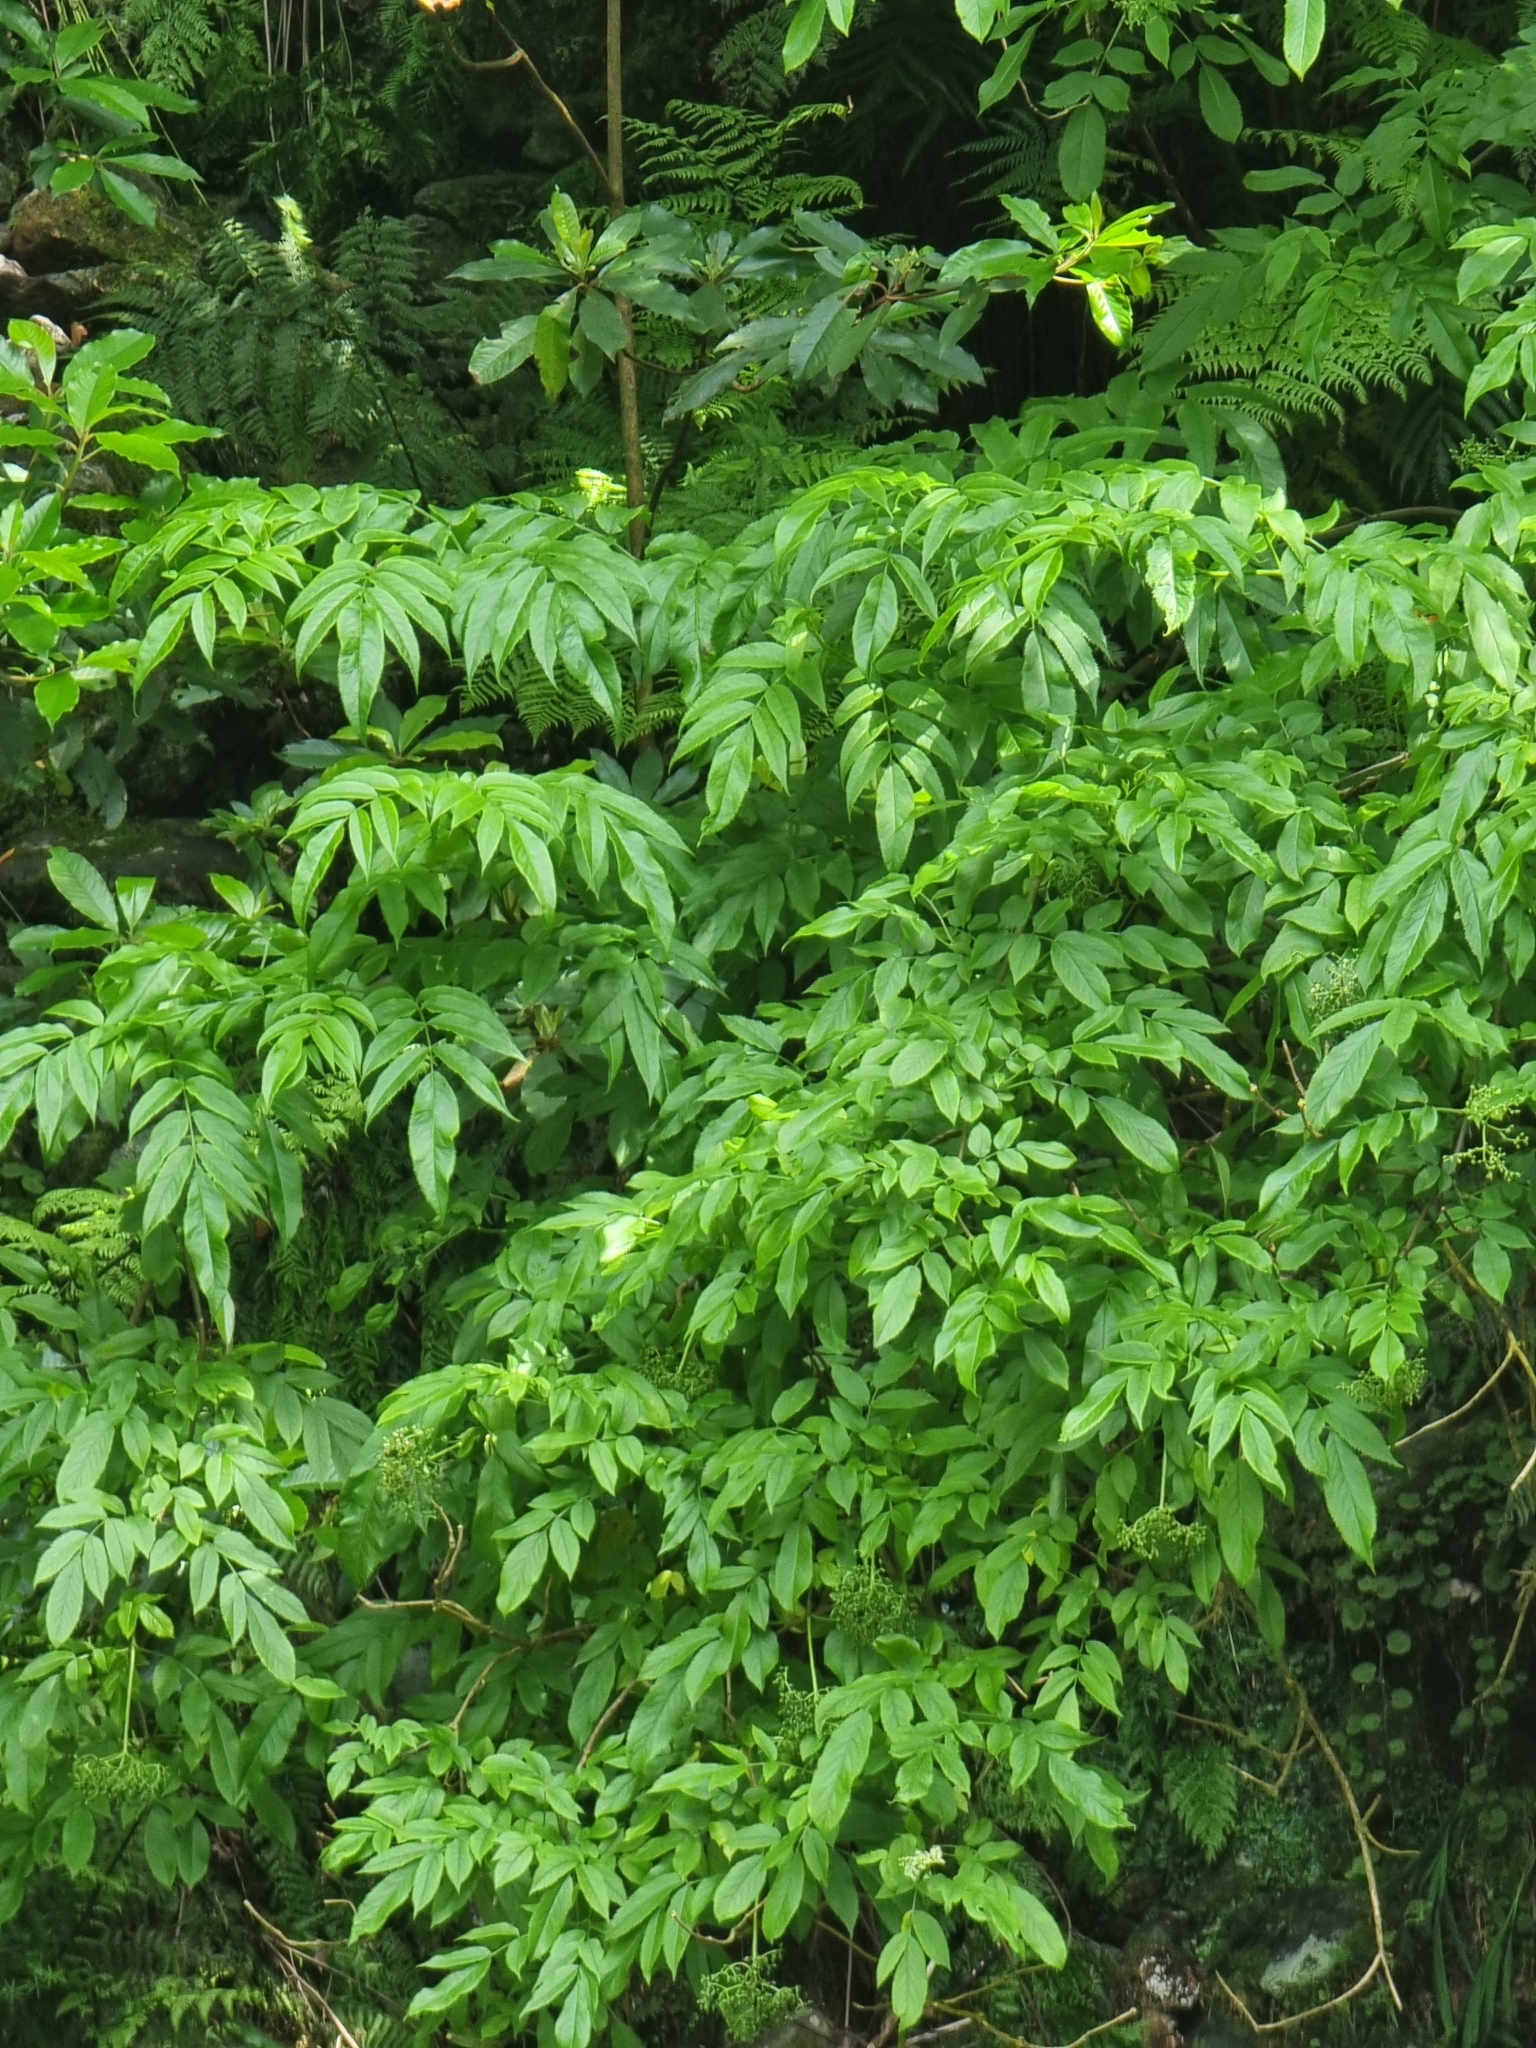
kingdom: Plantae
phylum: Tracheophyta
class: Magnoliopsida
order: Dipsacales
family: Viburnaceae
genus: Sambucus
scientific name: Sambucus lanceolata
